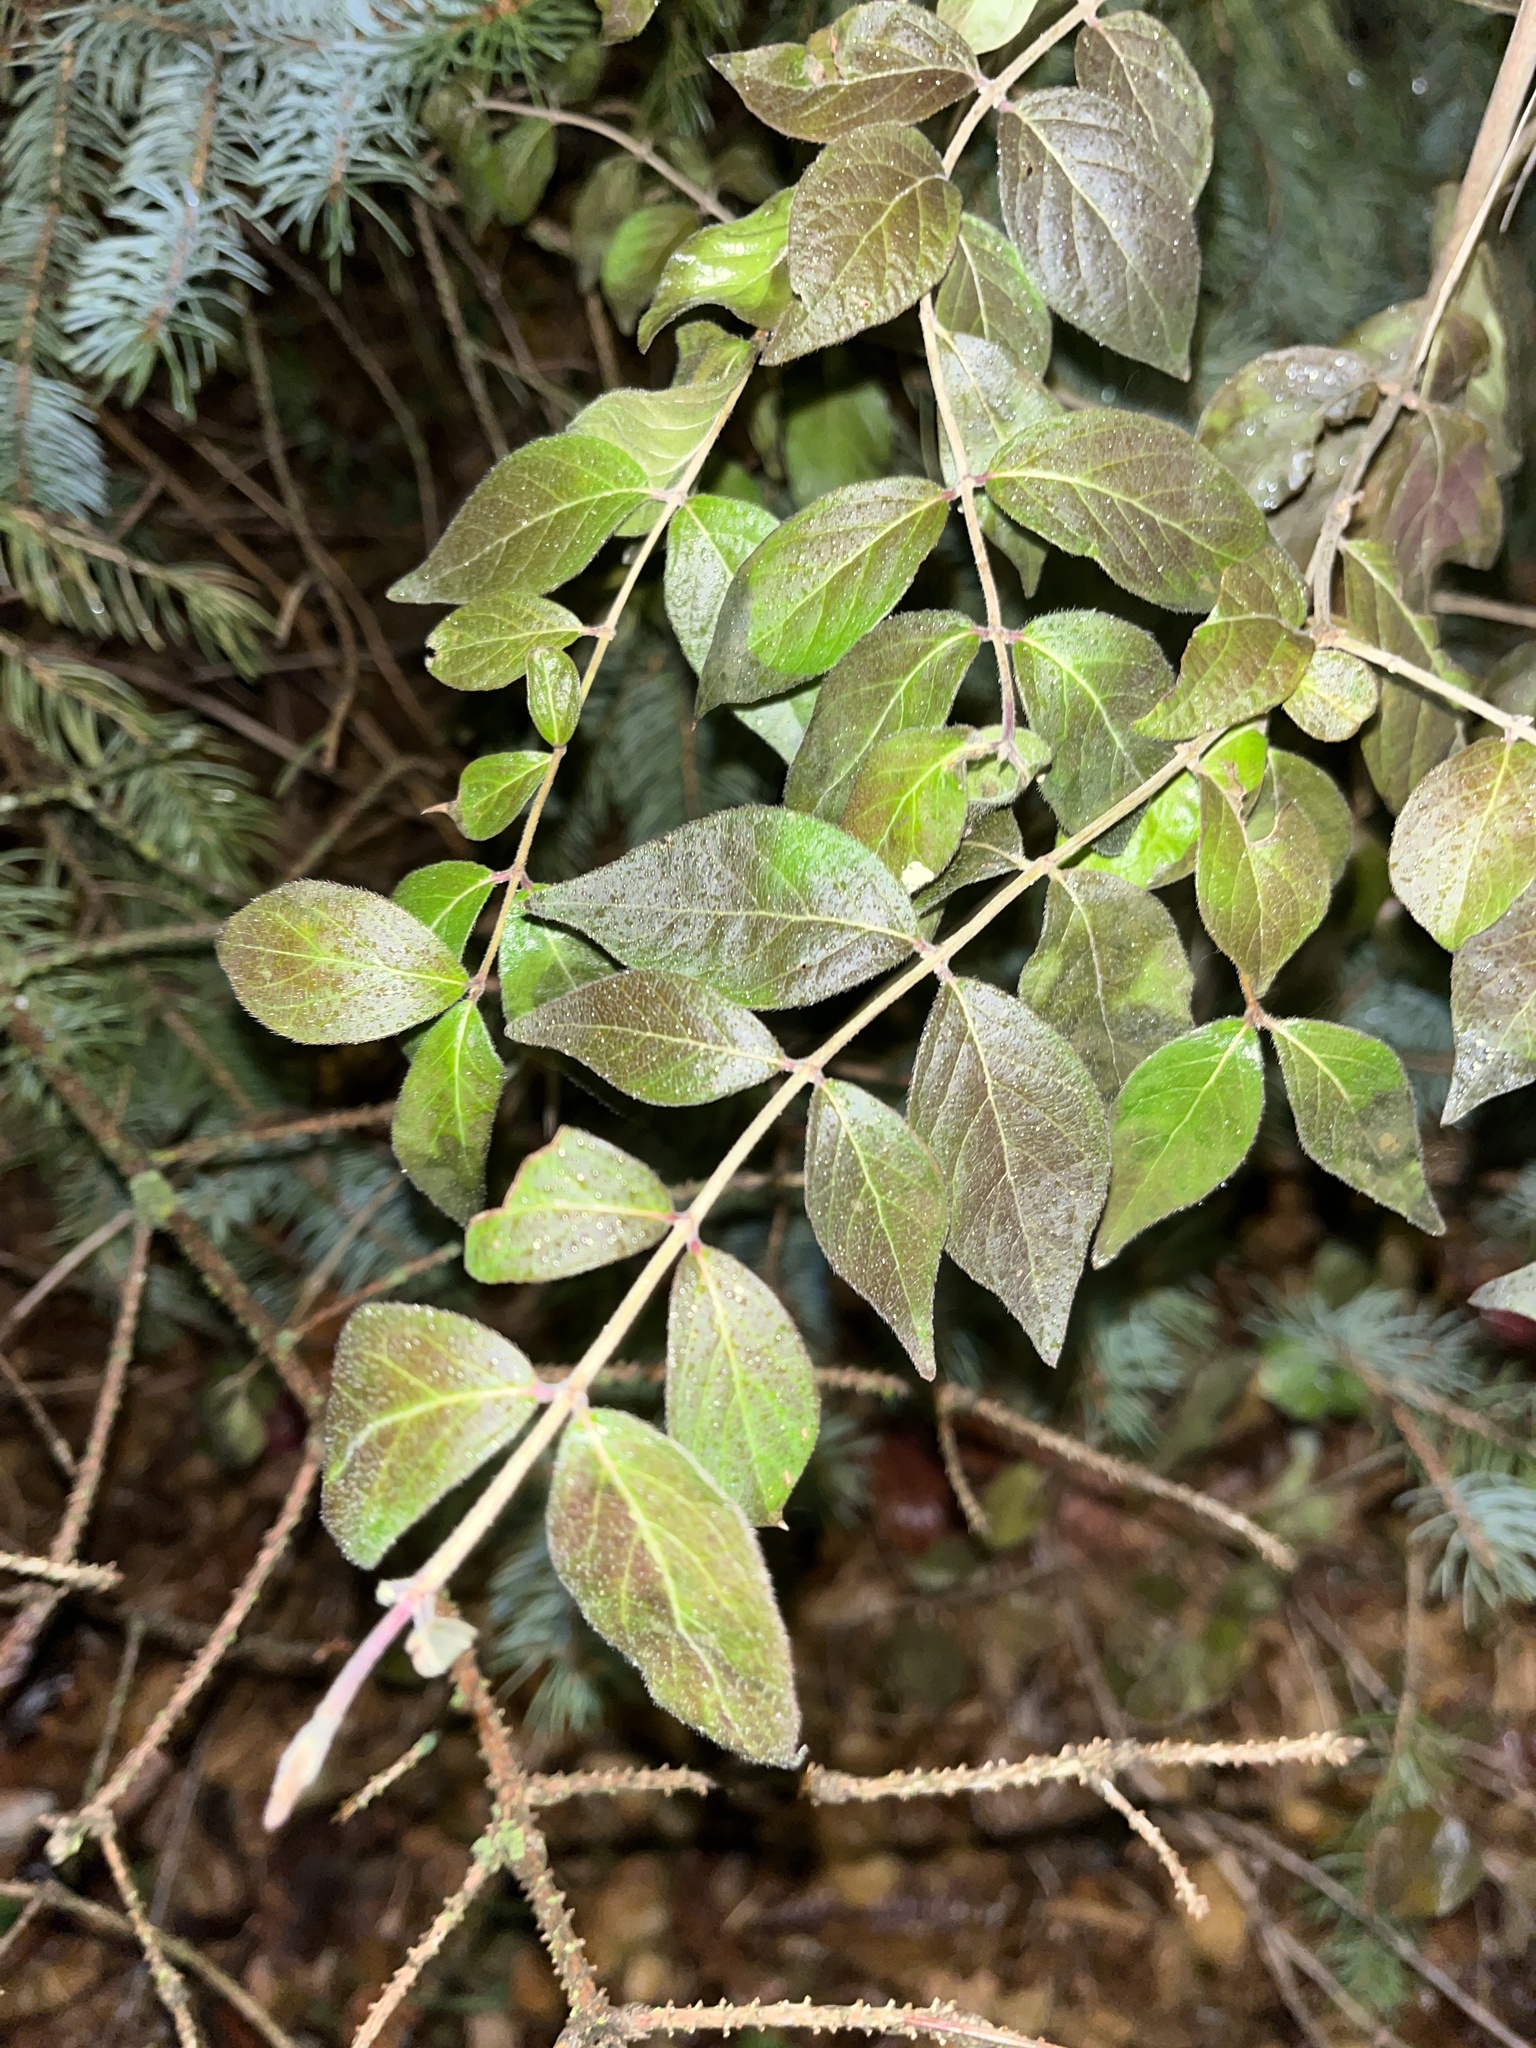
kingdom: Plantae
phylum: Tracheophyta
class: Magnoliopsida
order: Dipsacales
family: Caprifoliaceae
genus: Lonicera
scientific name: Lonicera maackii
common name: Amur honeysuckle
